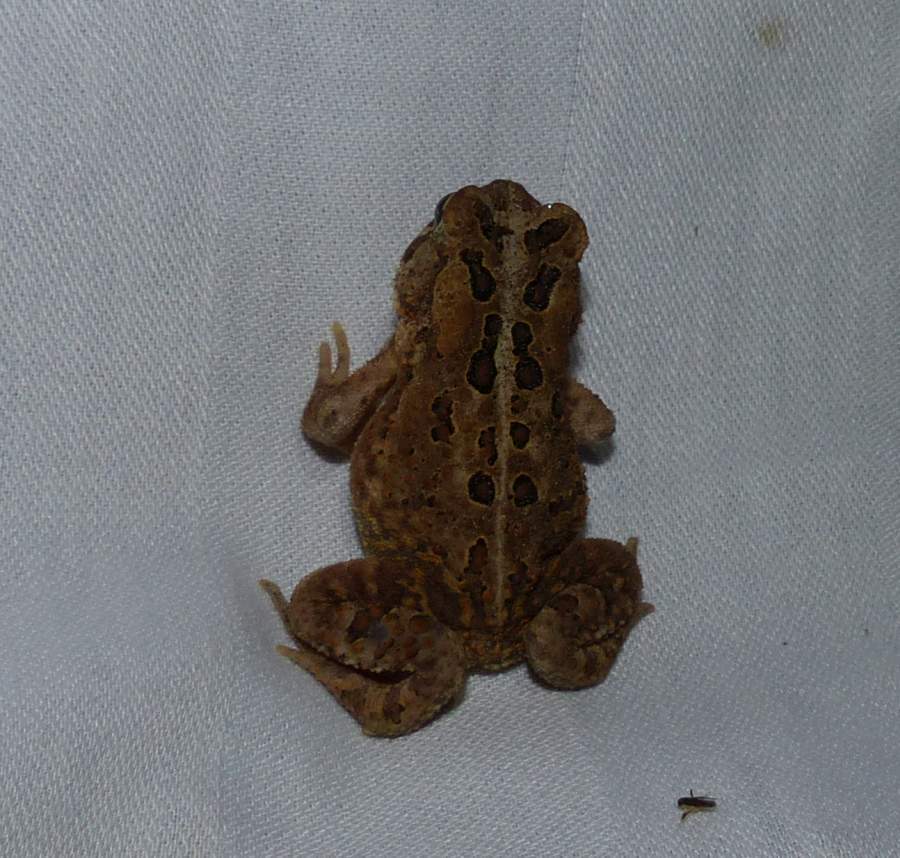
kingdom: Animalia
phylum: Chordata
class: Amphibia
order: Anura
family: Bufonidae
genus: Anaxyrus
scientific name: Anaxyrus americanus
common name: American toad
